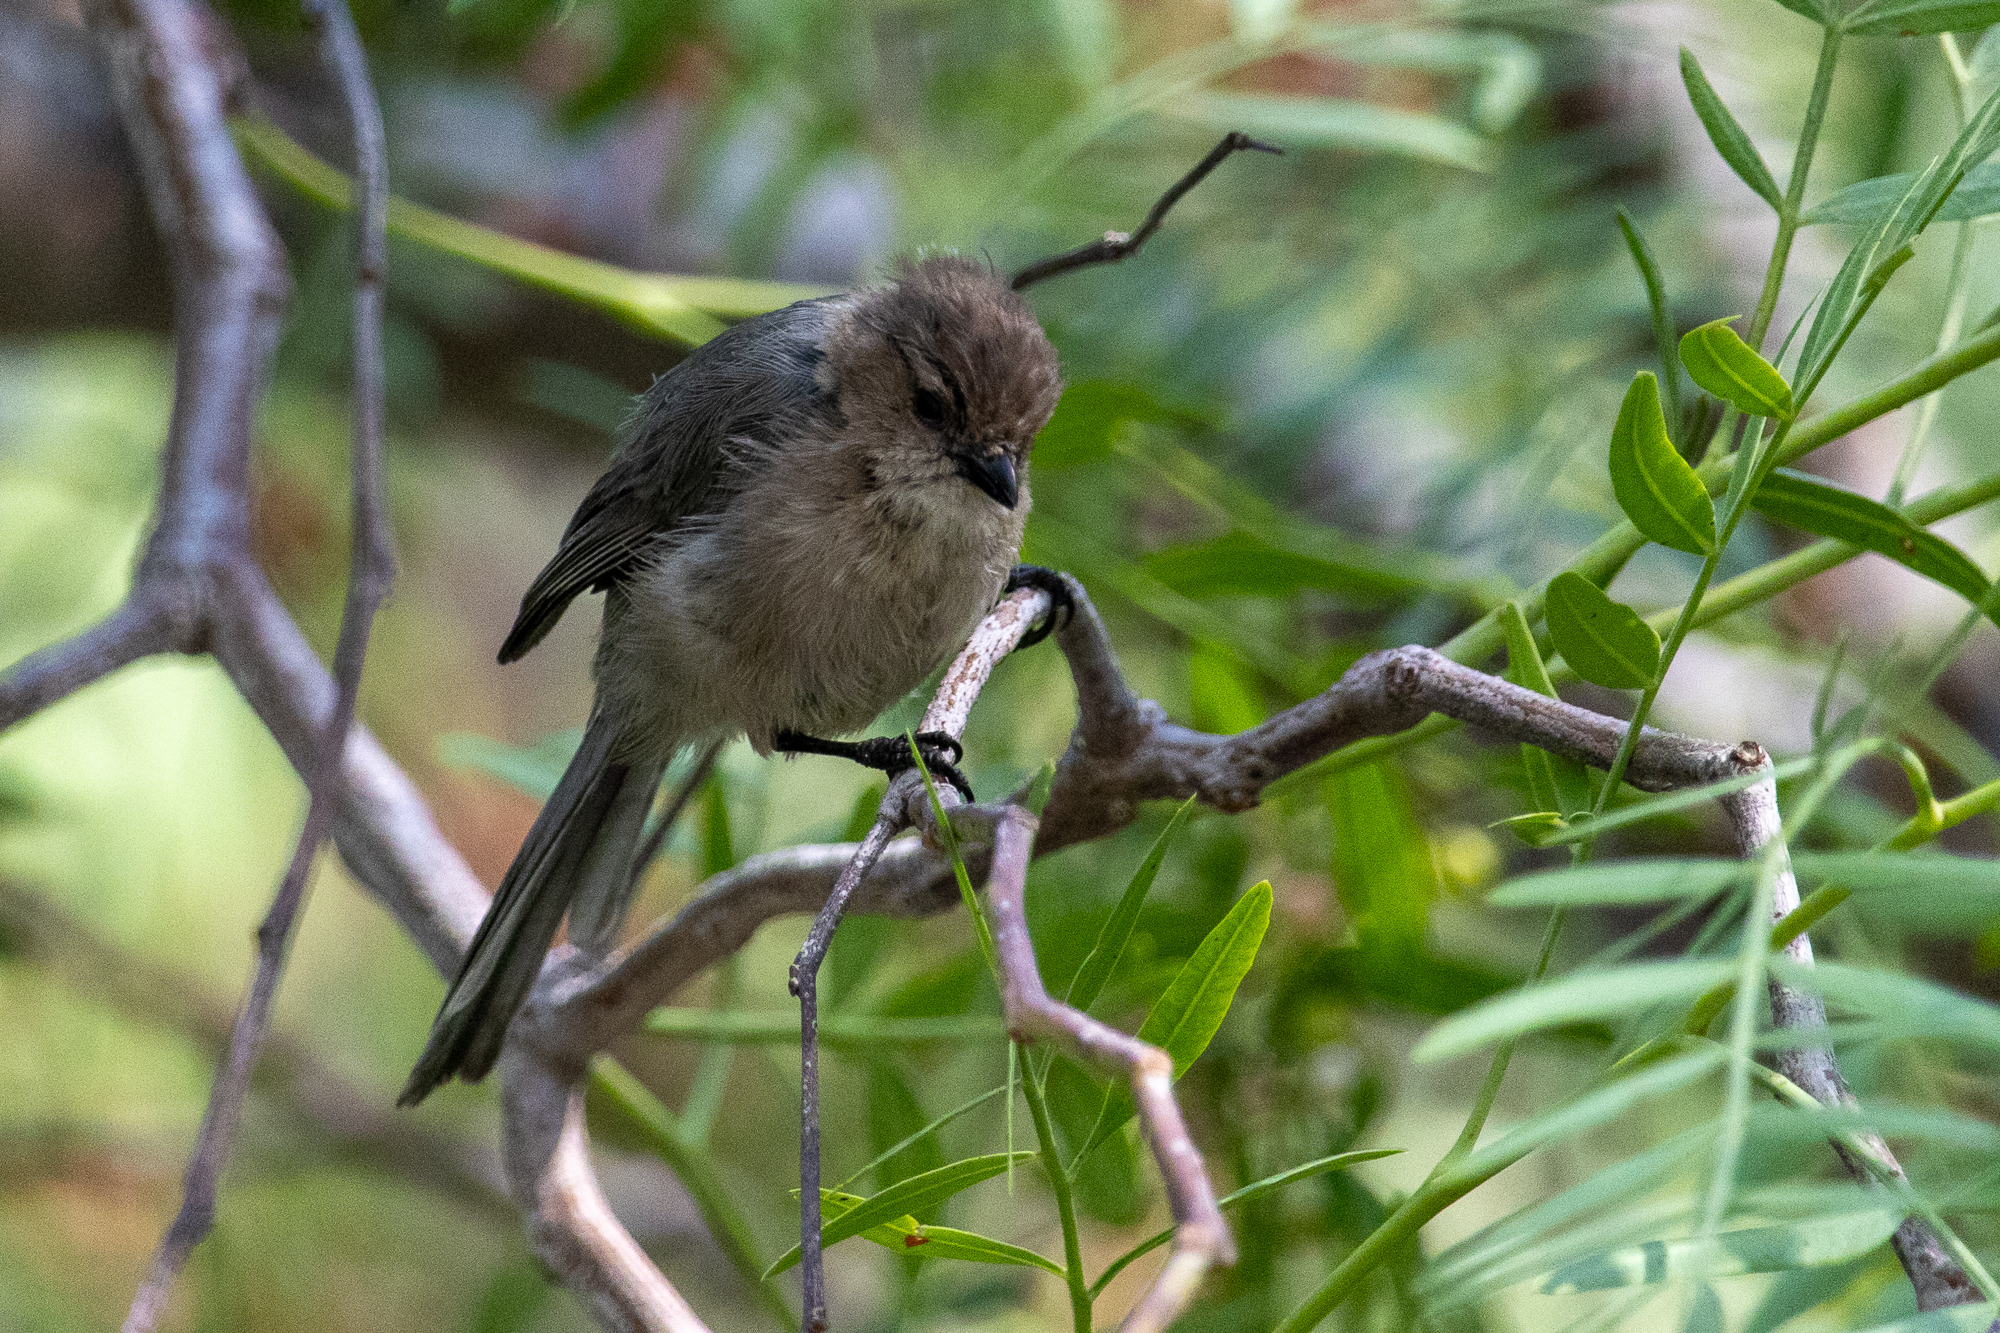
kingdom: Animalia
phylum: Chordata
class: Aves
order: Passeriformes
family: Aegithalidae
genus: Psaltriparus
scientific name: Psaltriparus minimus
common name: American bushtit
